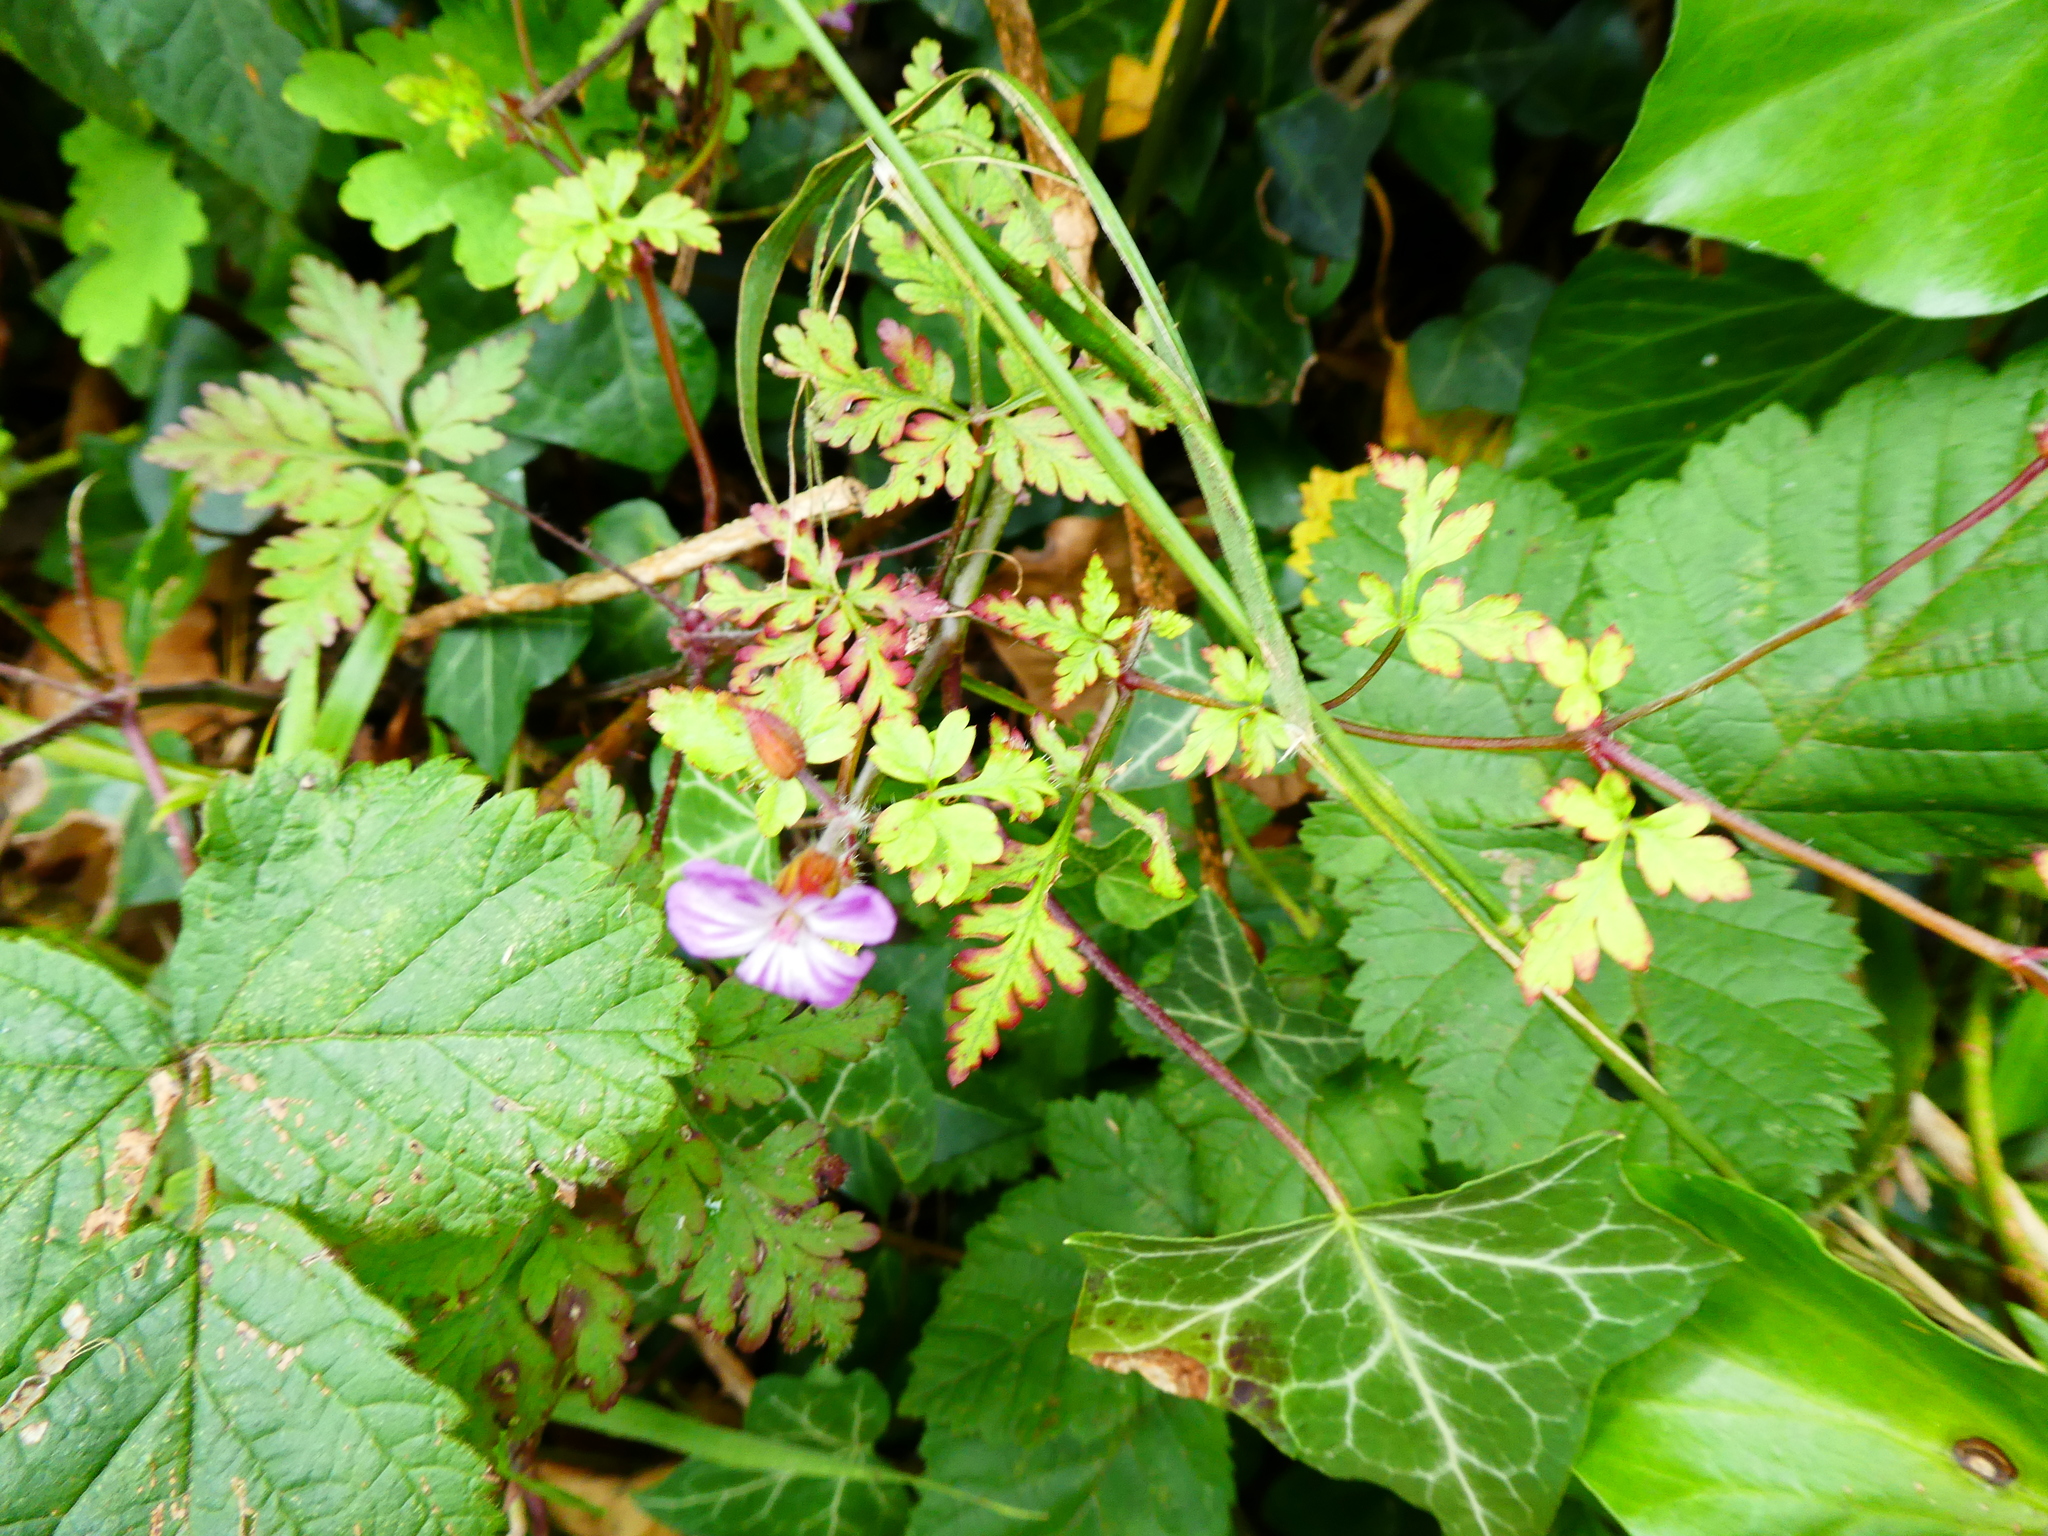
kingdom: Plantae
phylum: Tracheophyta
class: Magnoliopsida
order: Geraniales
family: Geraniaceae
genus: Geranium
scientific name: Geranium robertianum
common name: Herb-robert
